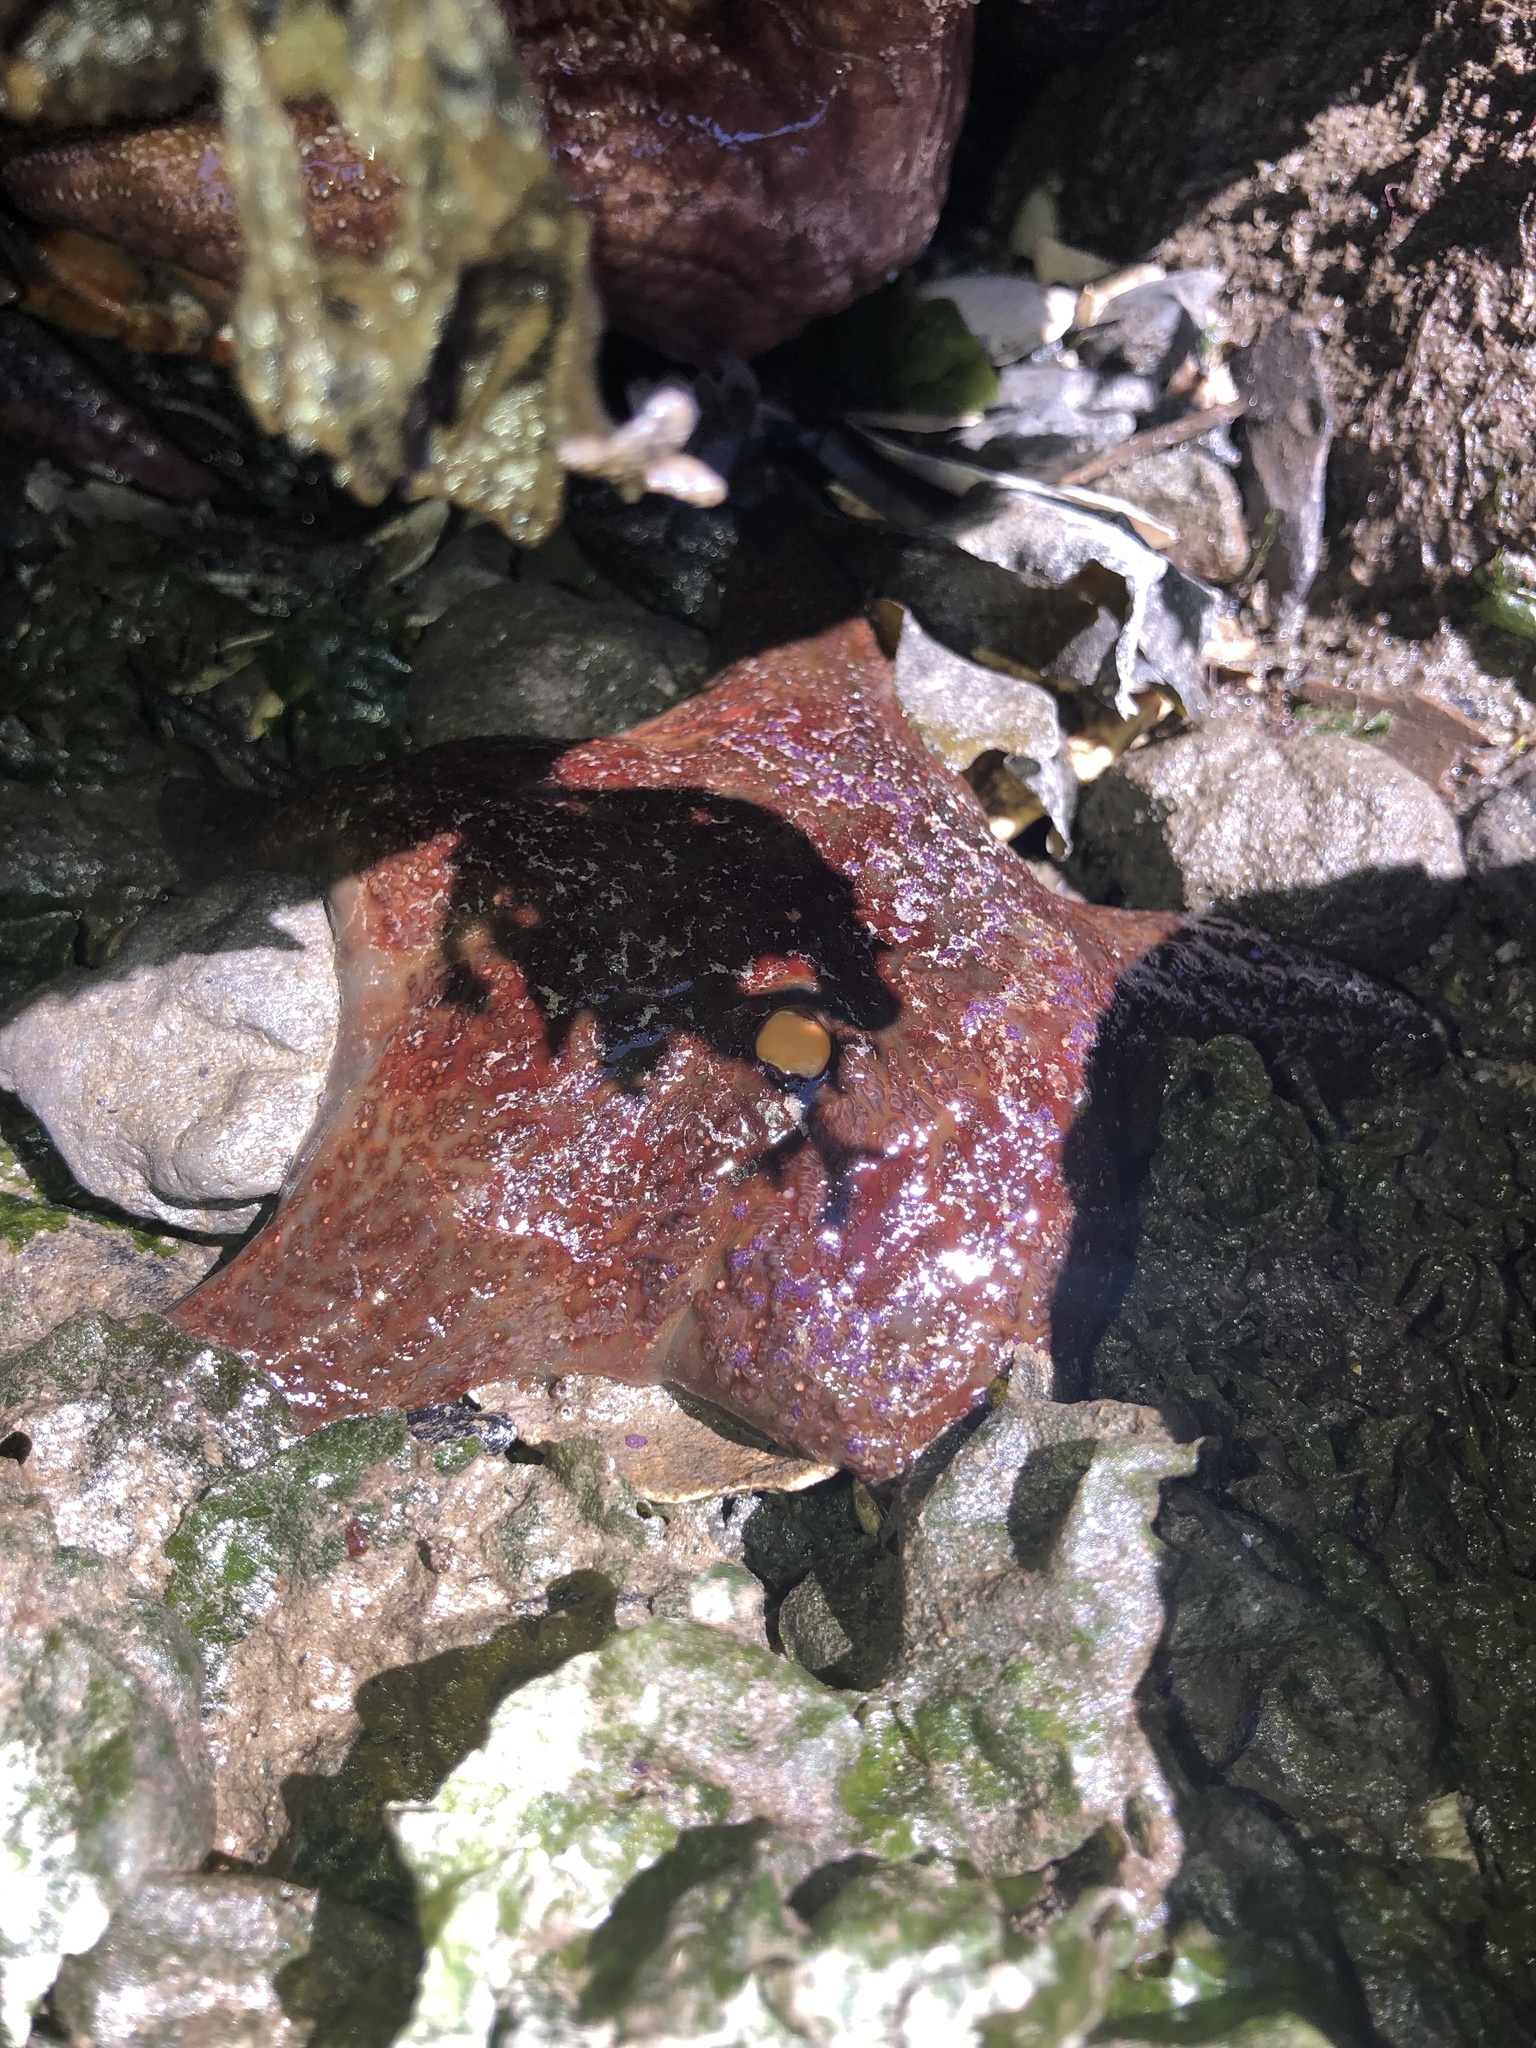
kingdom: Animalia
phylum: Echinodermata
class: Asteroidea
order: Valvatida
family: Asteropseidae
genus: Dermasterias
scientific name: Dermasterias imbricata
